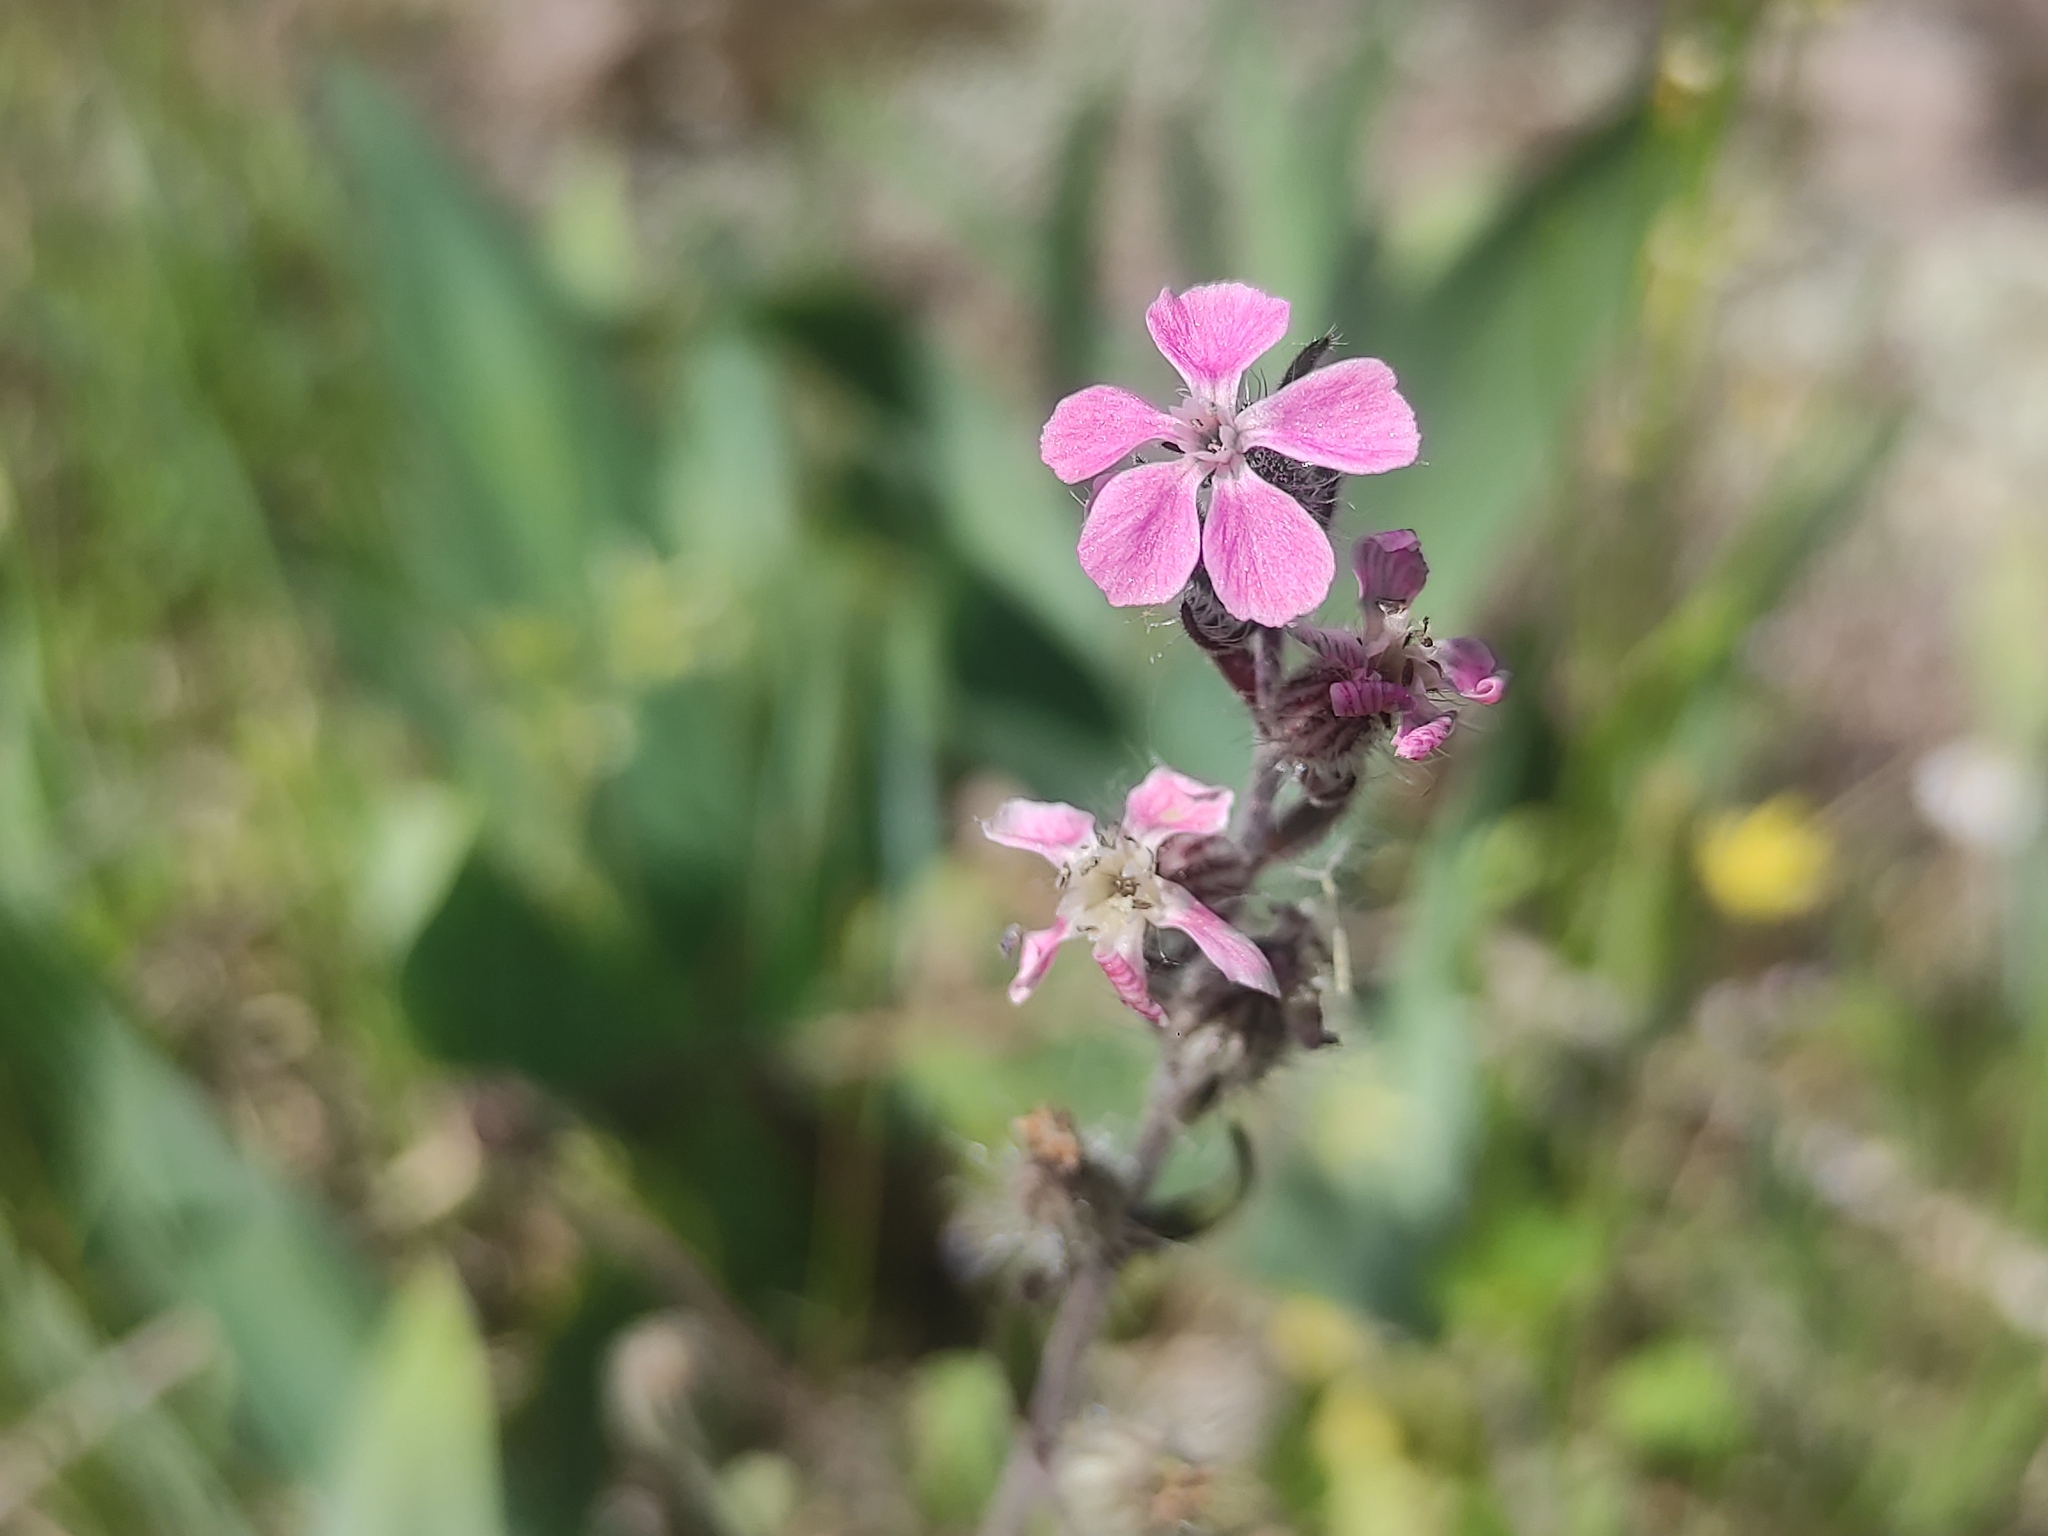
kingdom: Plantae
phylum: Tracheophyta
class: Magnoliopsida
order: Caryophyllales
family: Caryophyllaceae
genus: Silene
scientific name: Silene gallica
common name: Small-flowered catchfly
